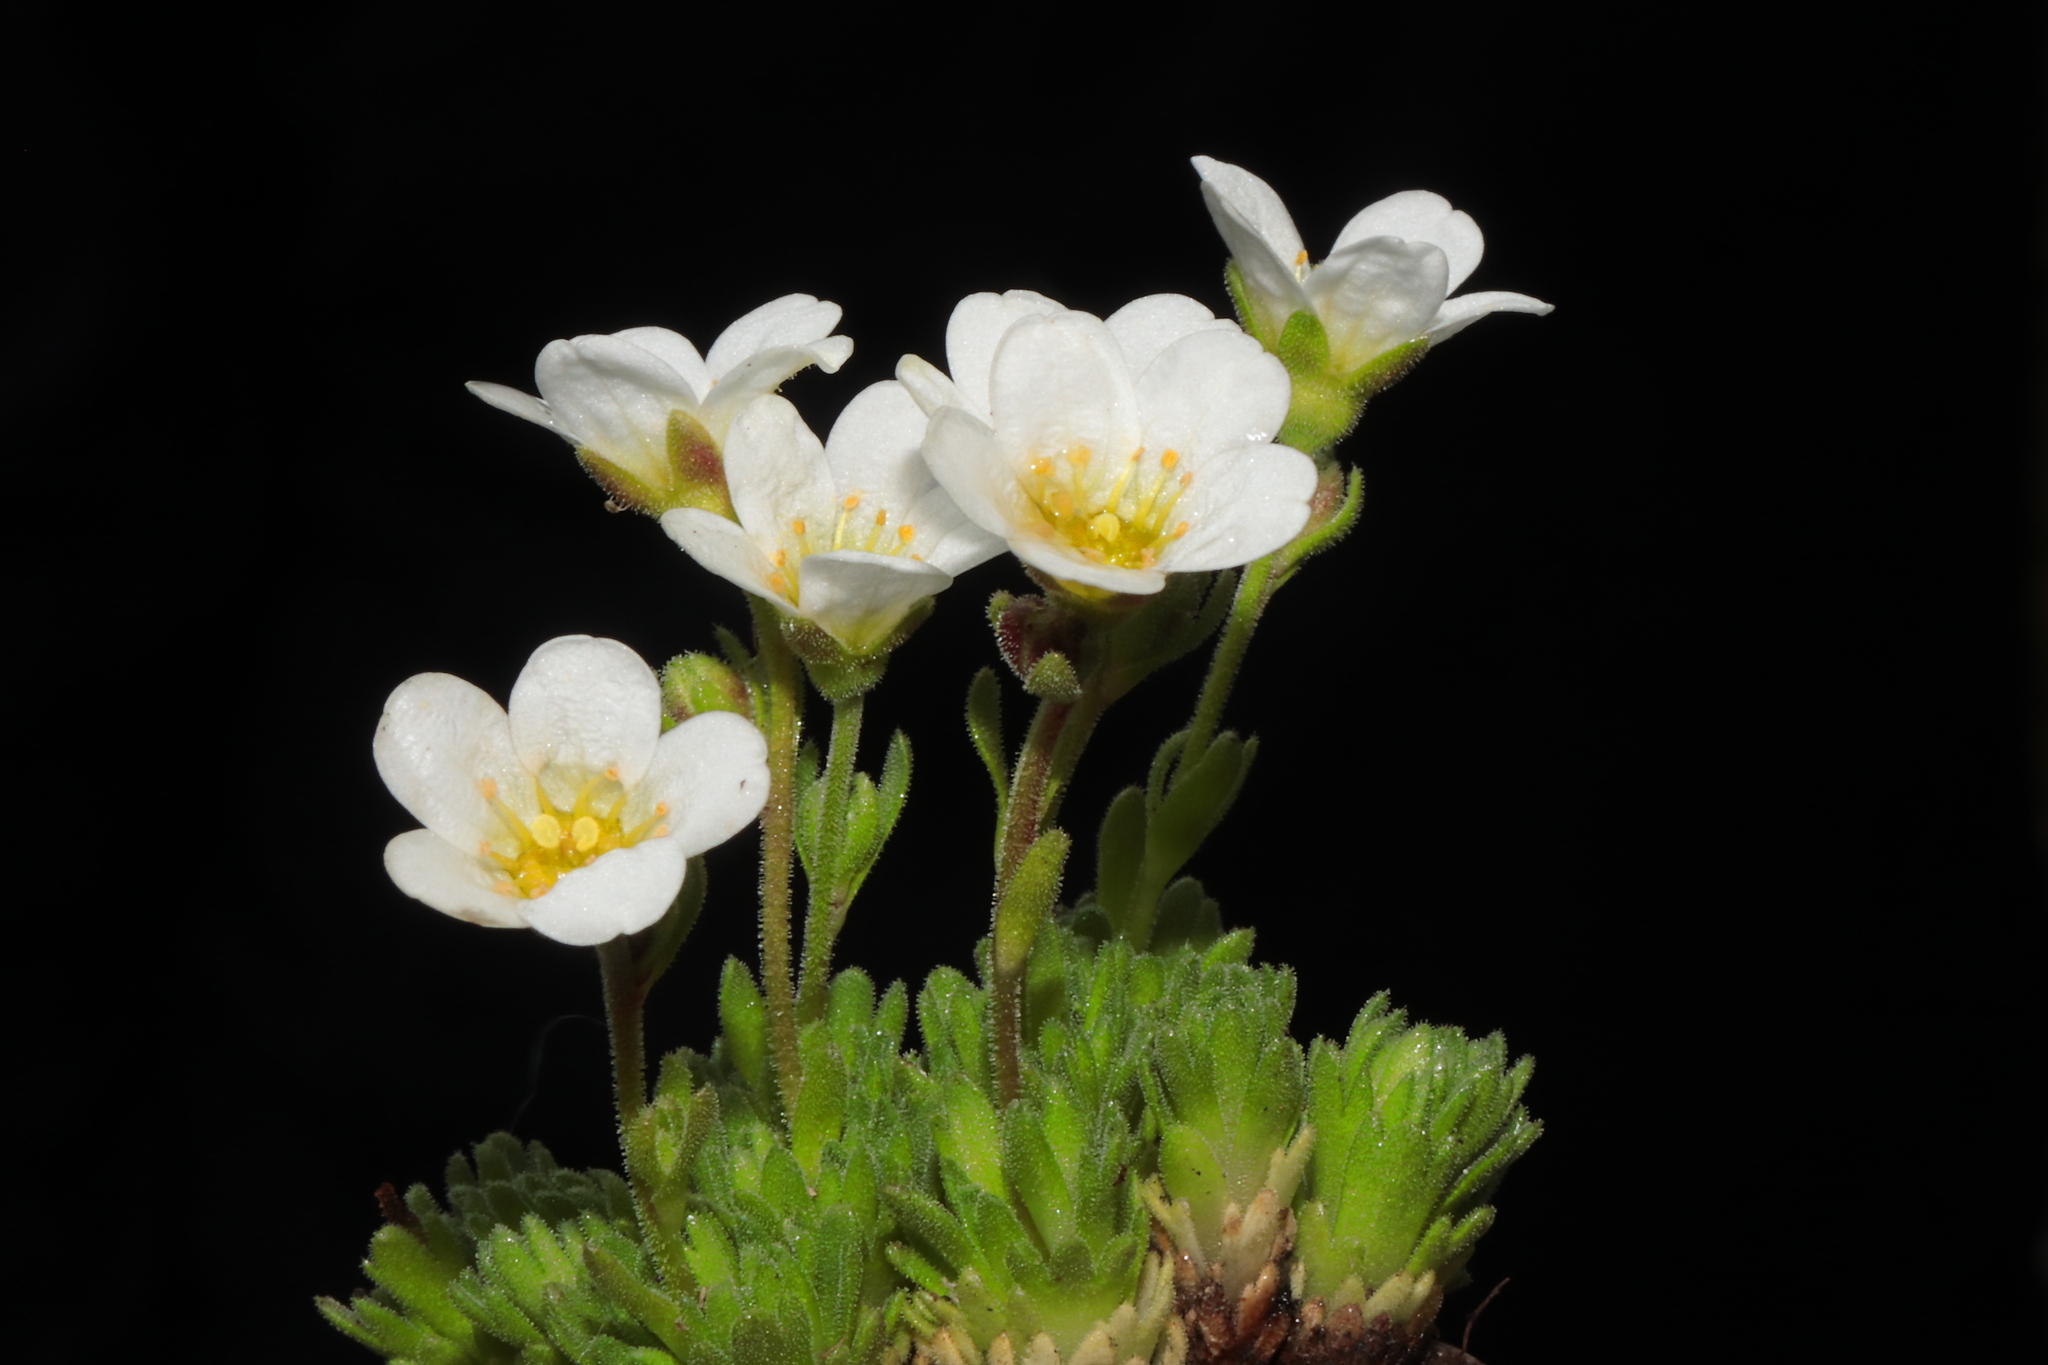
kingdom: Plantae
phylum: Tracheophyta
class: Magnoliopsida
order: Saxifragales
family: Saxifragaceae
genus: Saxifraga
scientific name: Saxifraga magellanica
